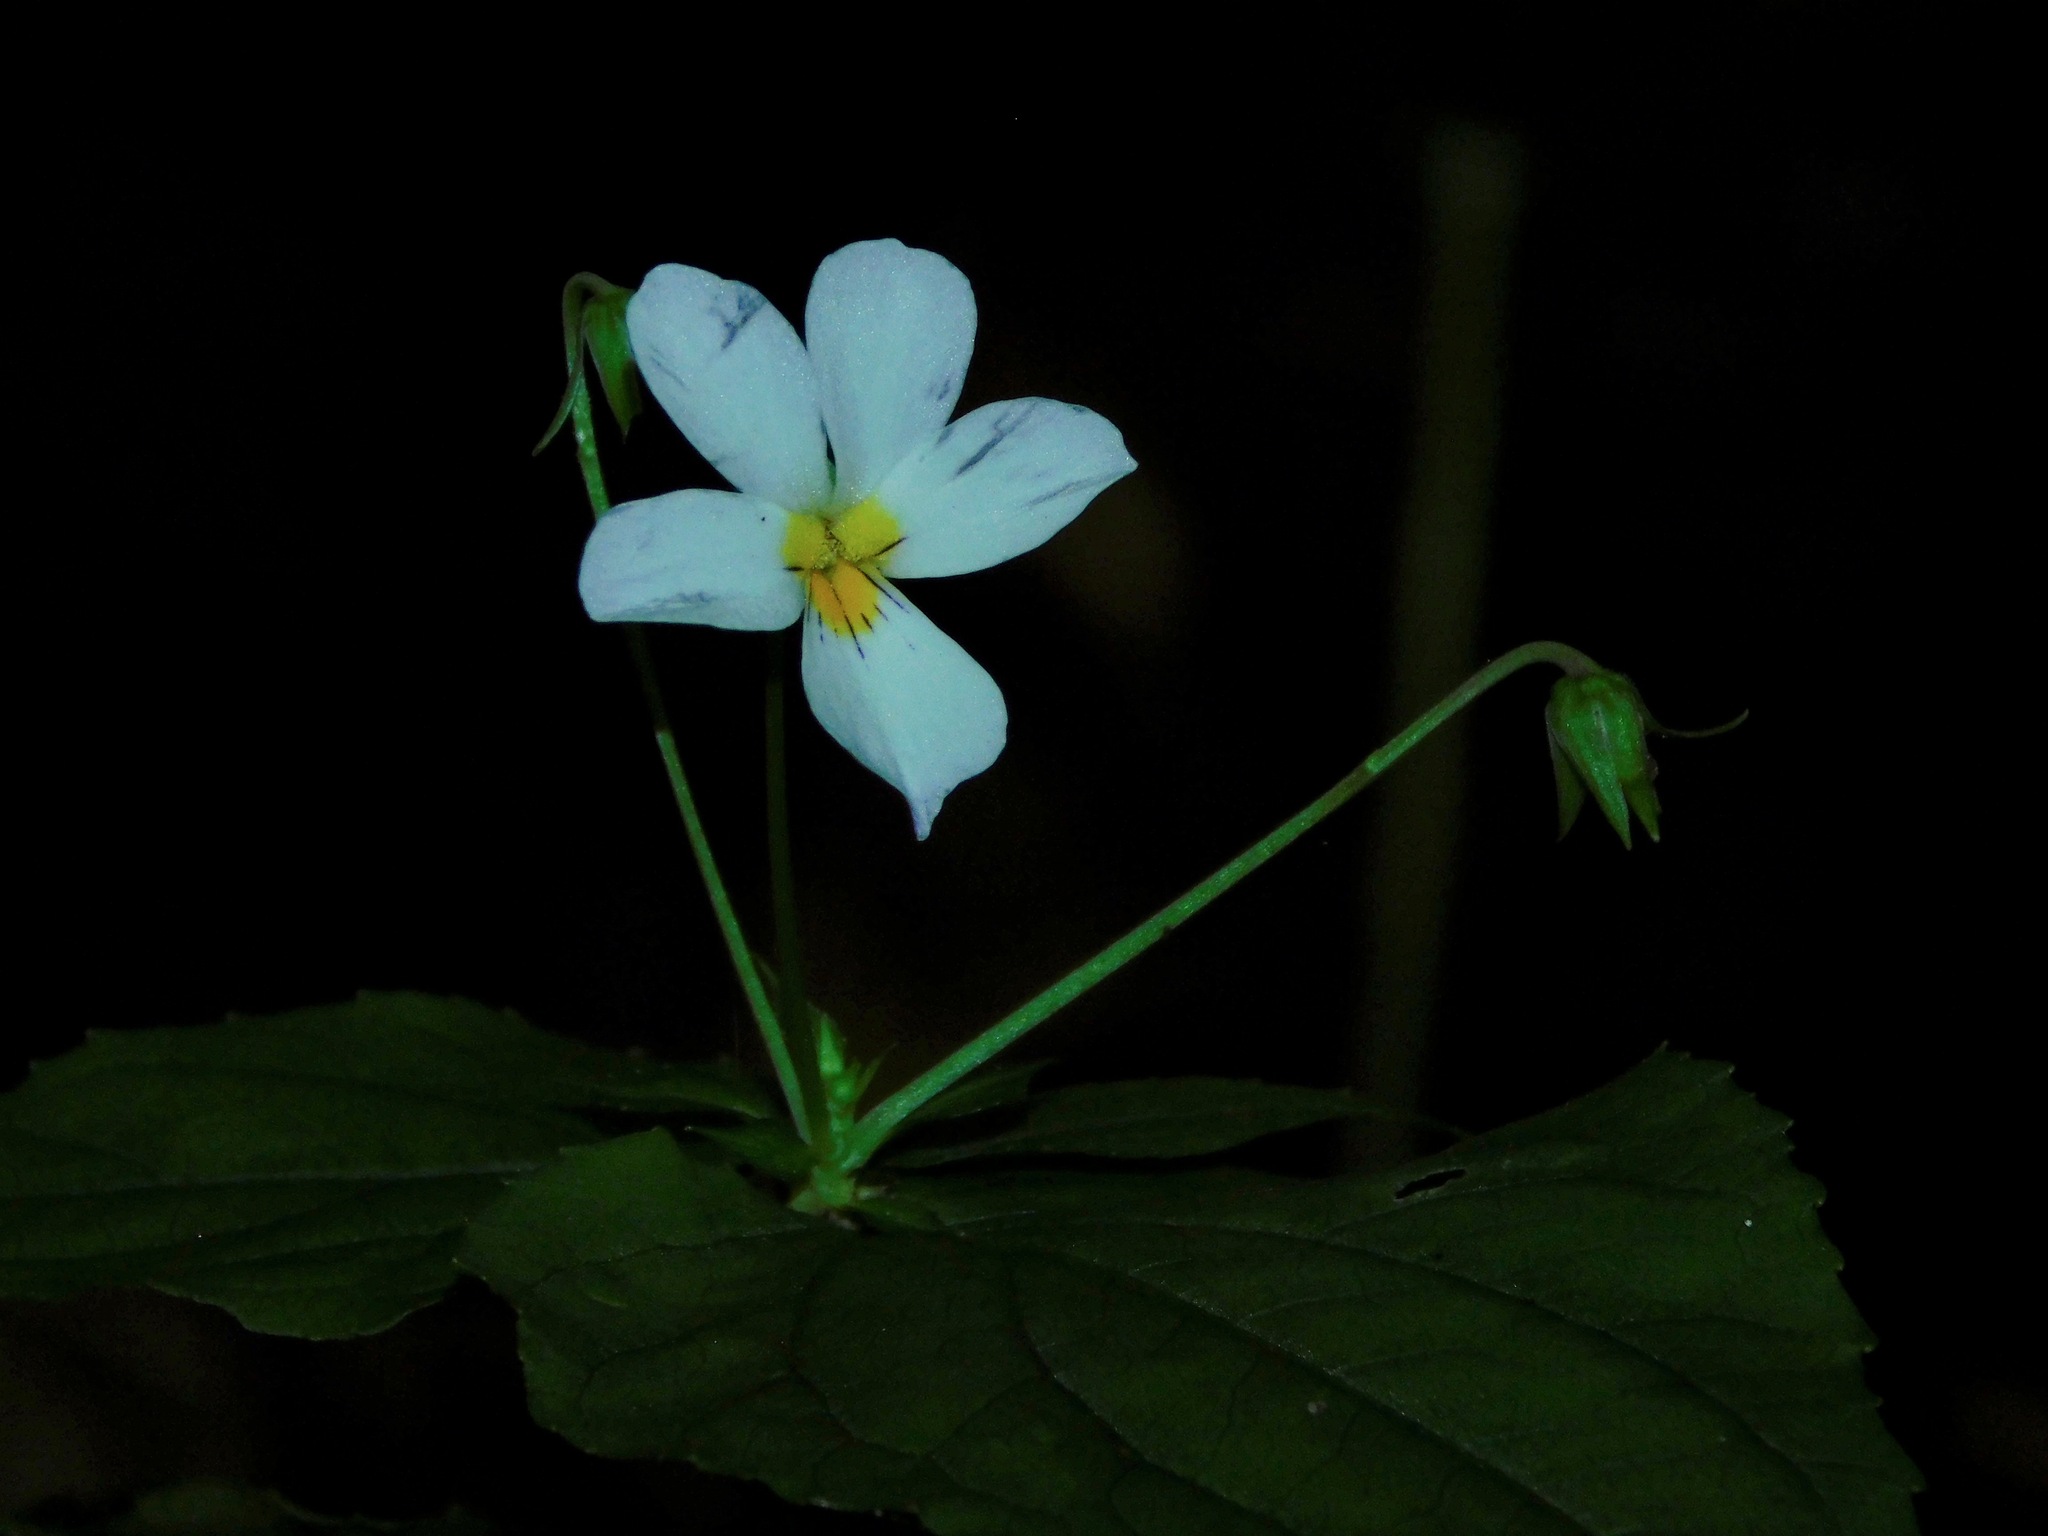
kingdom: Plantae
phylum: Tracheophyta
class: Magnoliopsida
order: Malpighiales
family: Violaceae
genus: Viola
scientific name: Viola canadensis
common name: Canada violet
